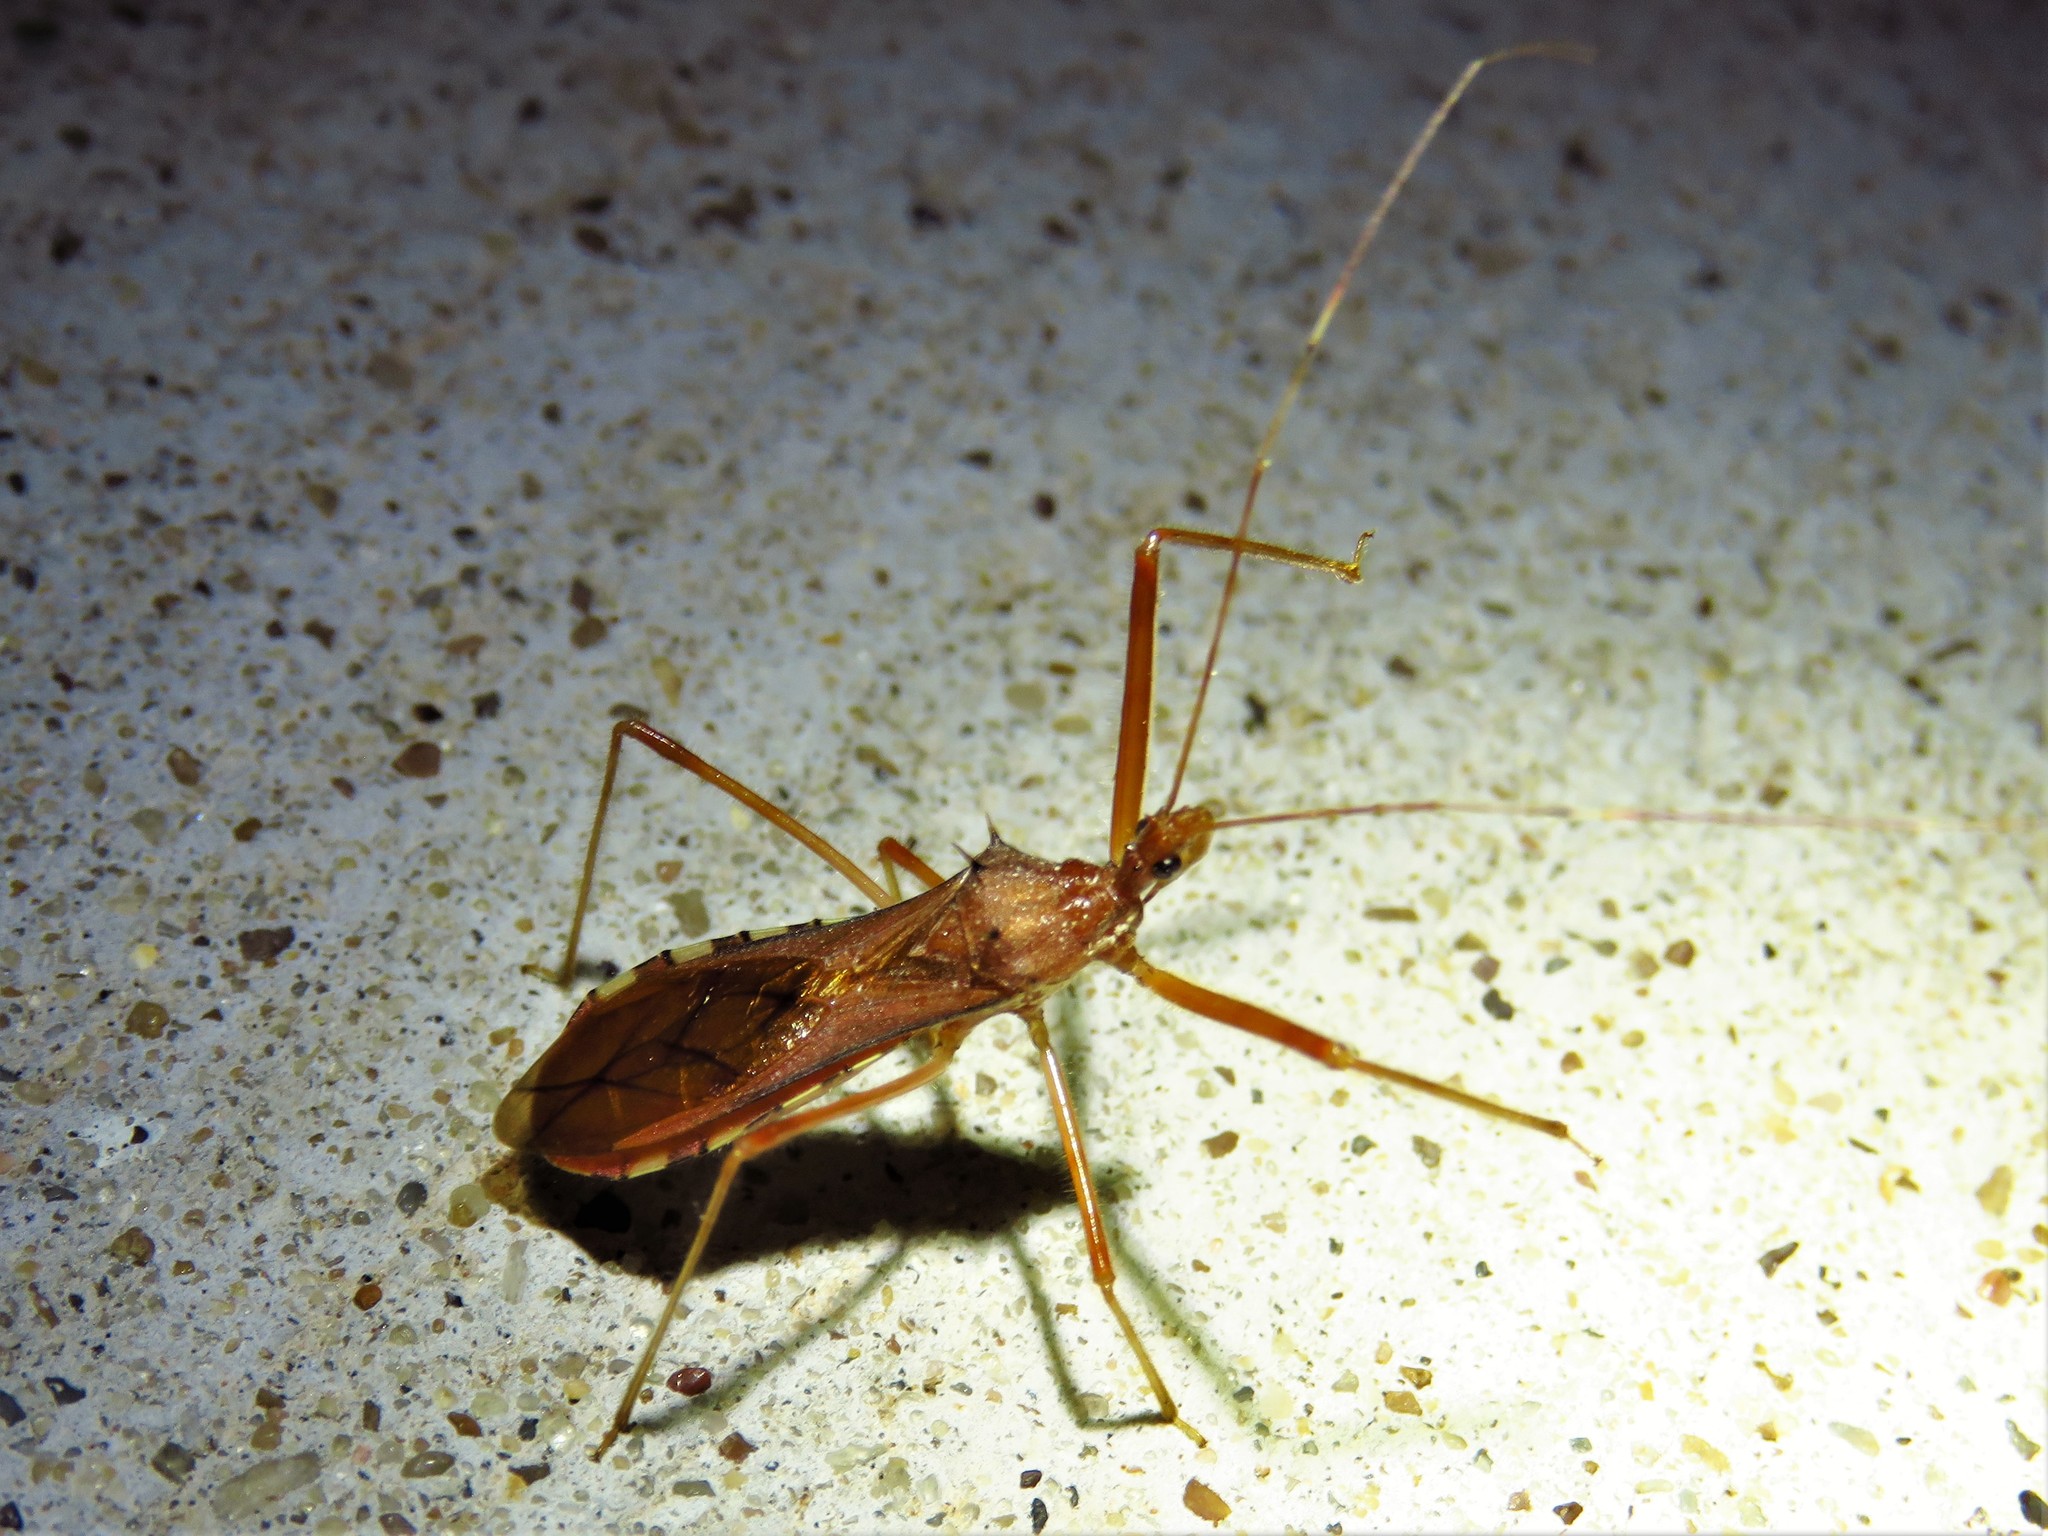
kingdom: Animalia
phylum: Arthropoda
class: Insecta
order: Hemiptera
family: Reduviidae
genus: Rocconota
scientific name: Rocconota annulicornis
